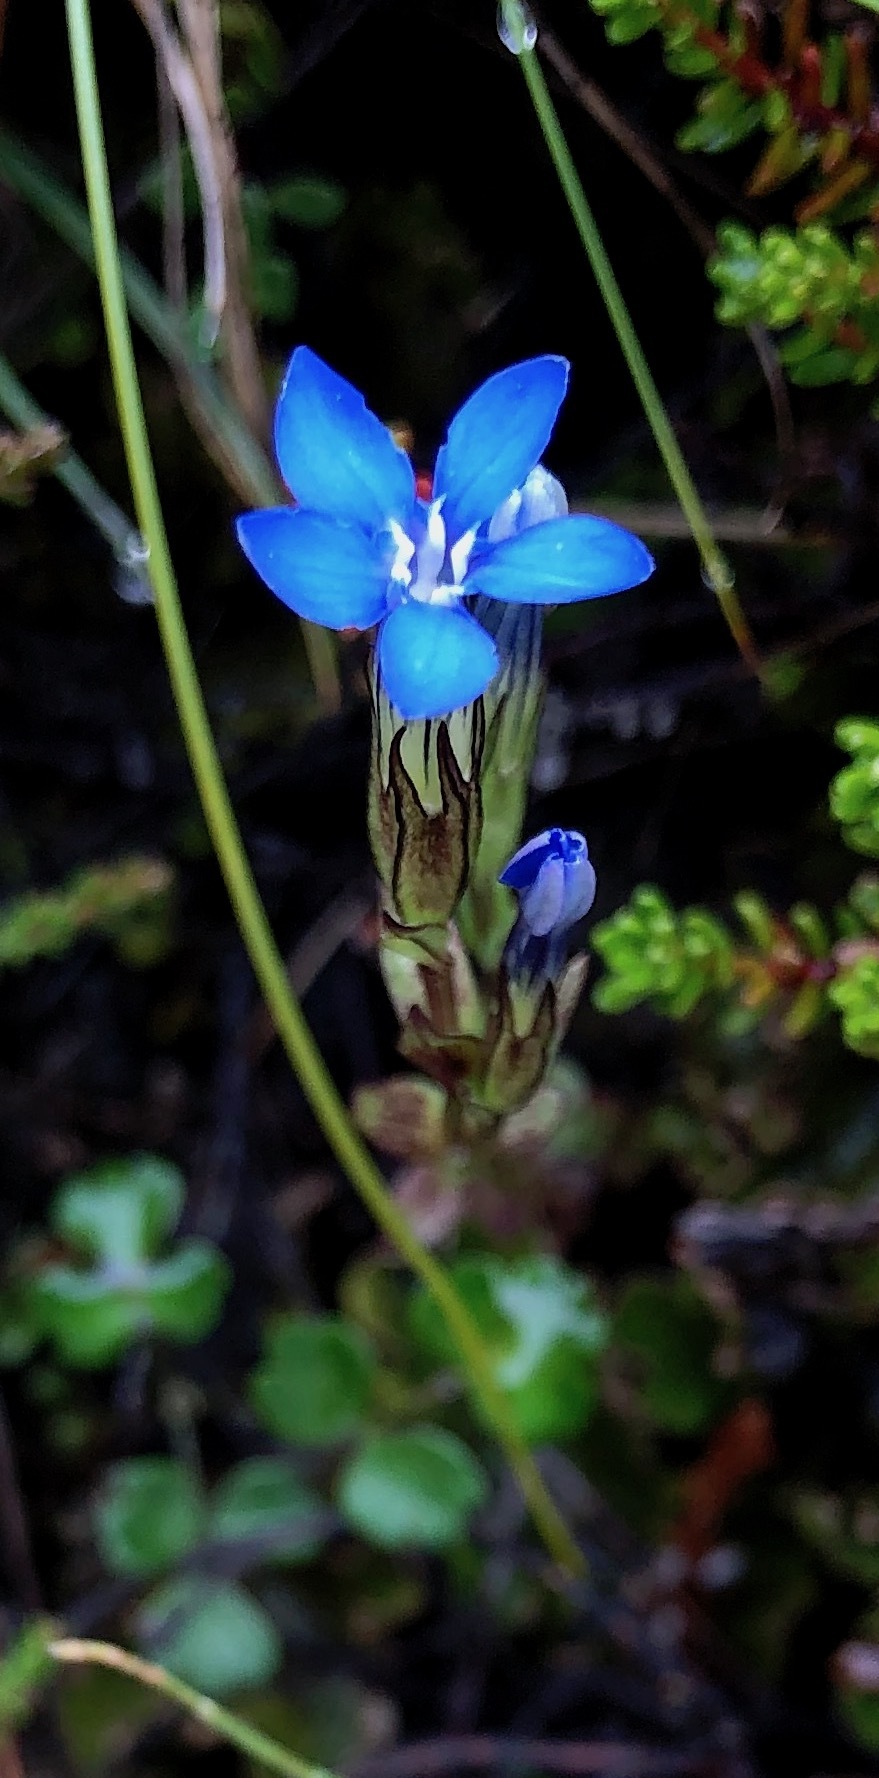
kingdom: Plantae
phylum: Tracheophyta
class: Magnoliopsida
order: Gentianales
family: Gentianaceae
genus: Gentiana
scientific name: Gentiana nivalis
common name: Alpine gentian
